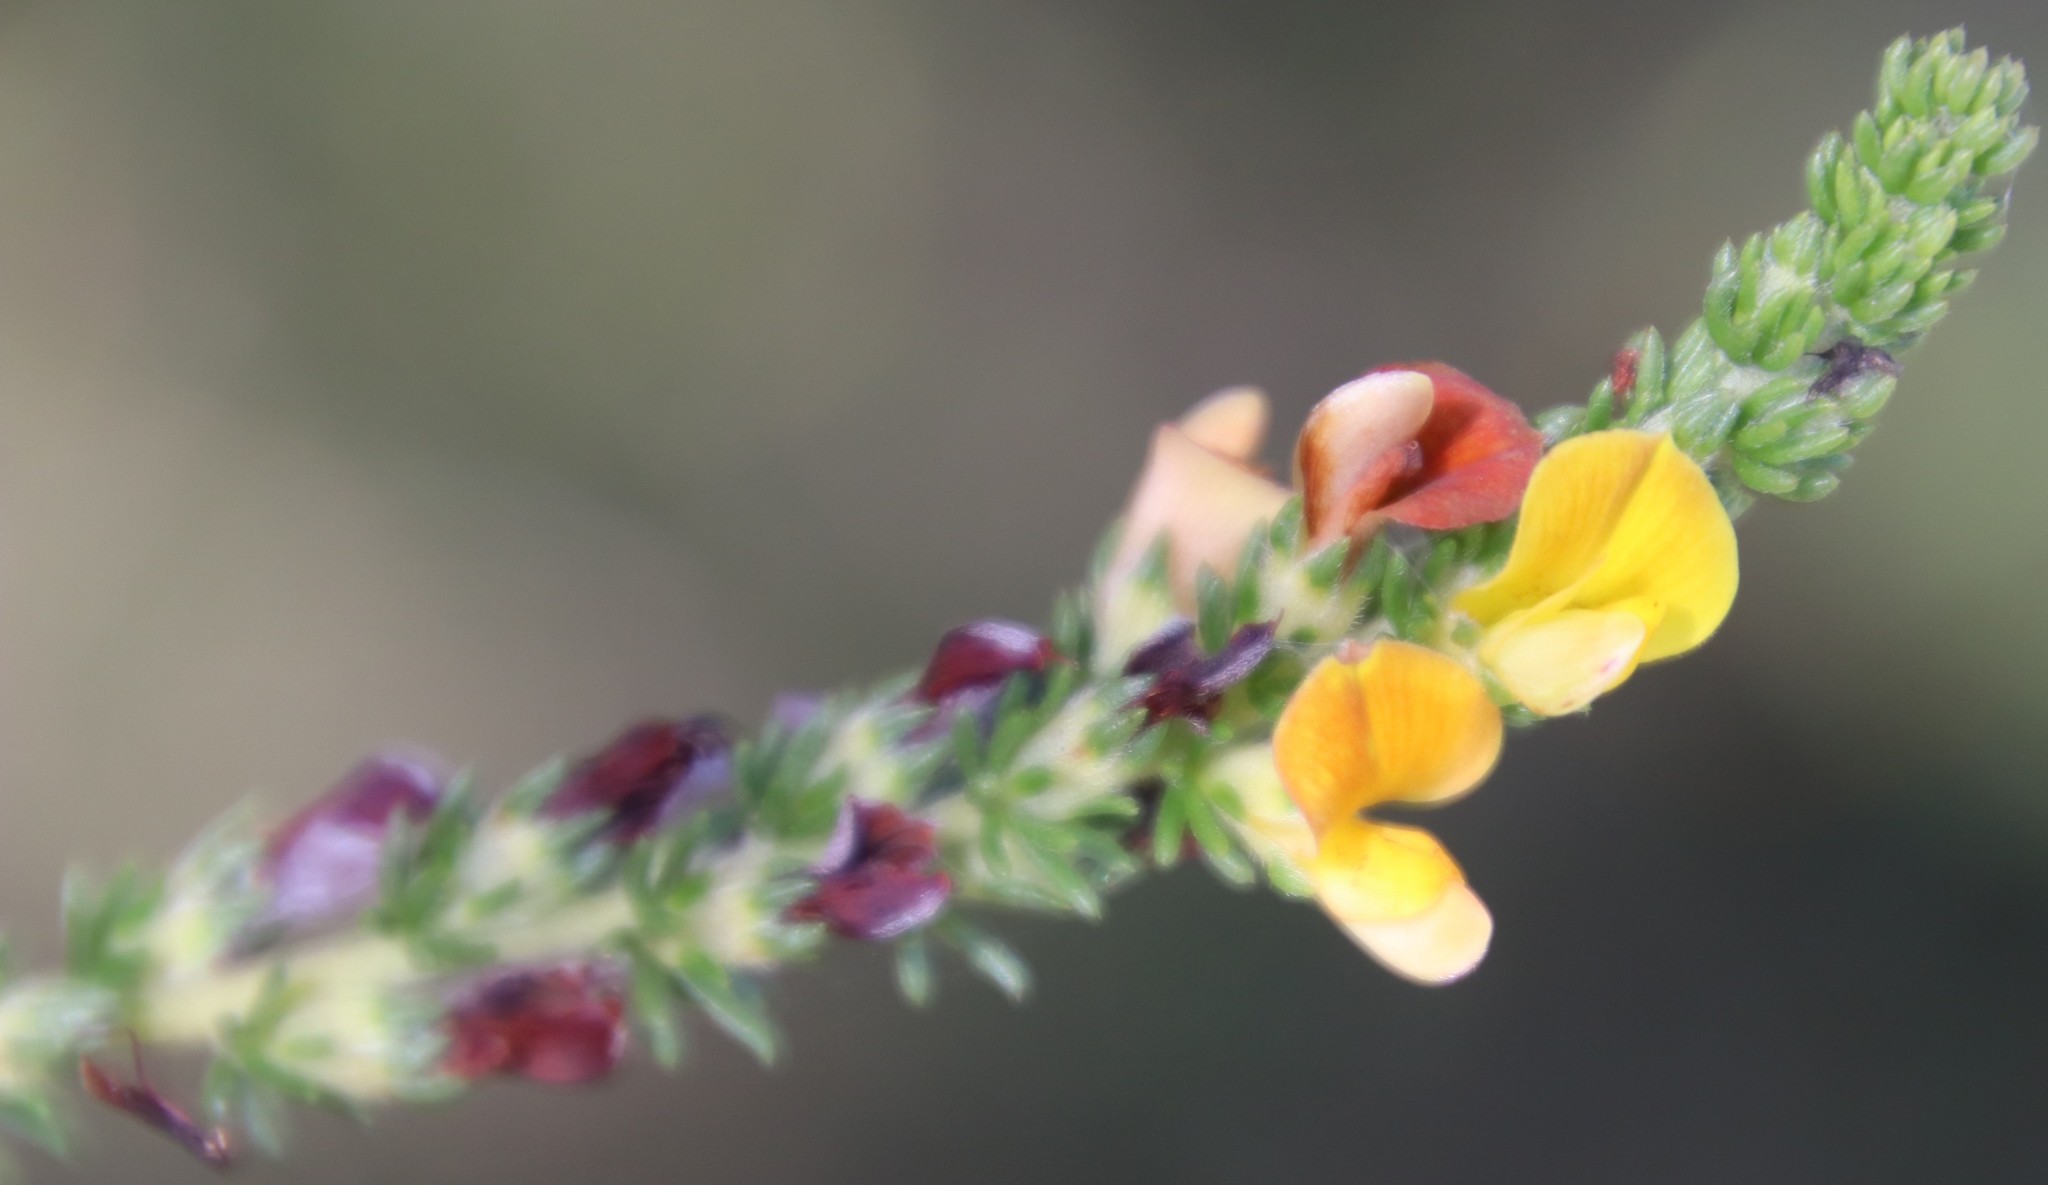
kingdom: Plantae
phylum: Tracheophyta
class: Magnoliopsida
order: Fabales
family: Fabaceae
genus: Aspalathus
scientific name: Aspalathus opaca
